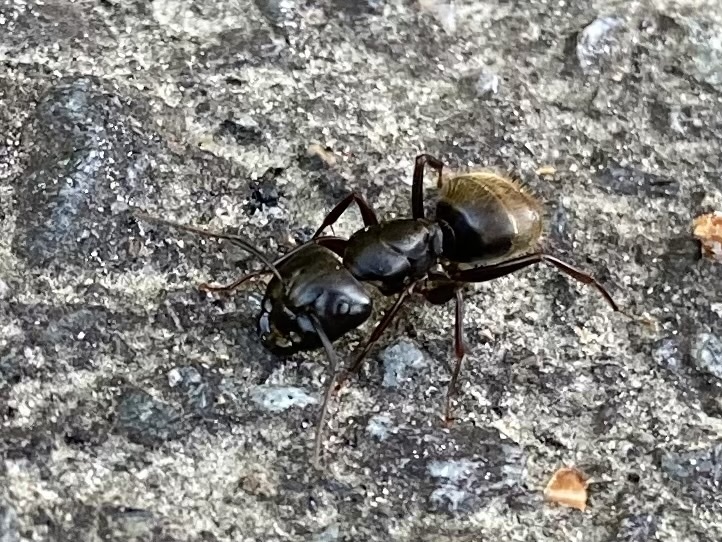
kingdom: Animalia
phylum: Arthropoda
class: Insecta
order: Hymenoptera
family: Formicidae
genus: Camponotus
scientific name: Camponotus pennsylvanicus
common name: Black carpenter ant
